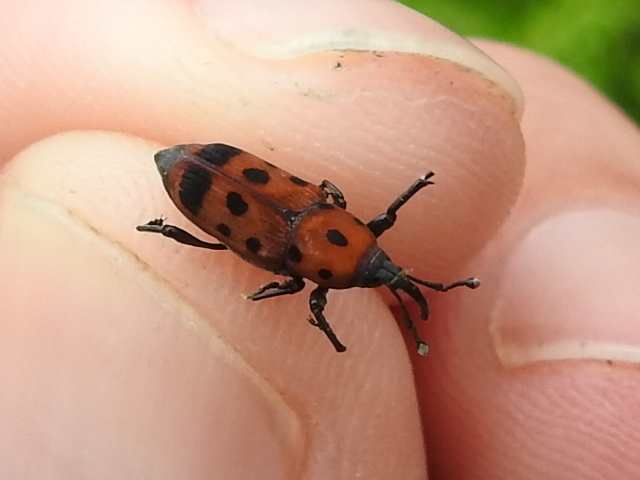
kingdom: Animalia
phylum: Arthropoda
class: Insecta
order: Coleoptera
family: Dryophthoridae
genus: Rhodobaenus
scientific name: Rhodobaenus tredecimpunctatus
